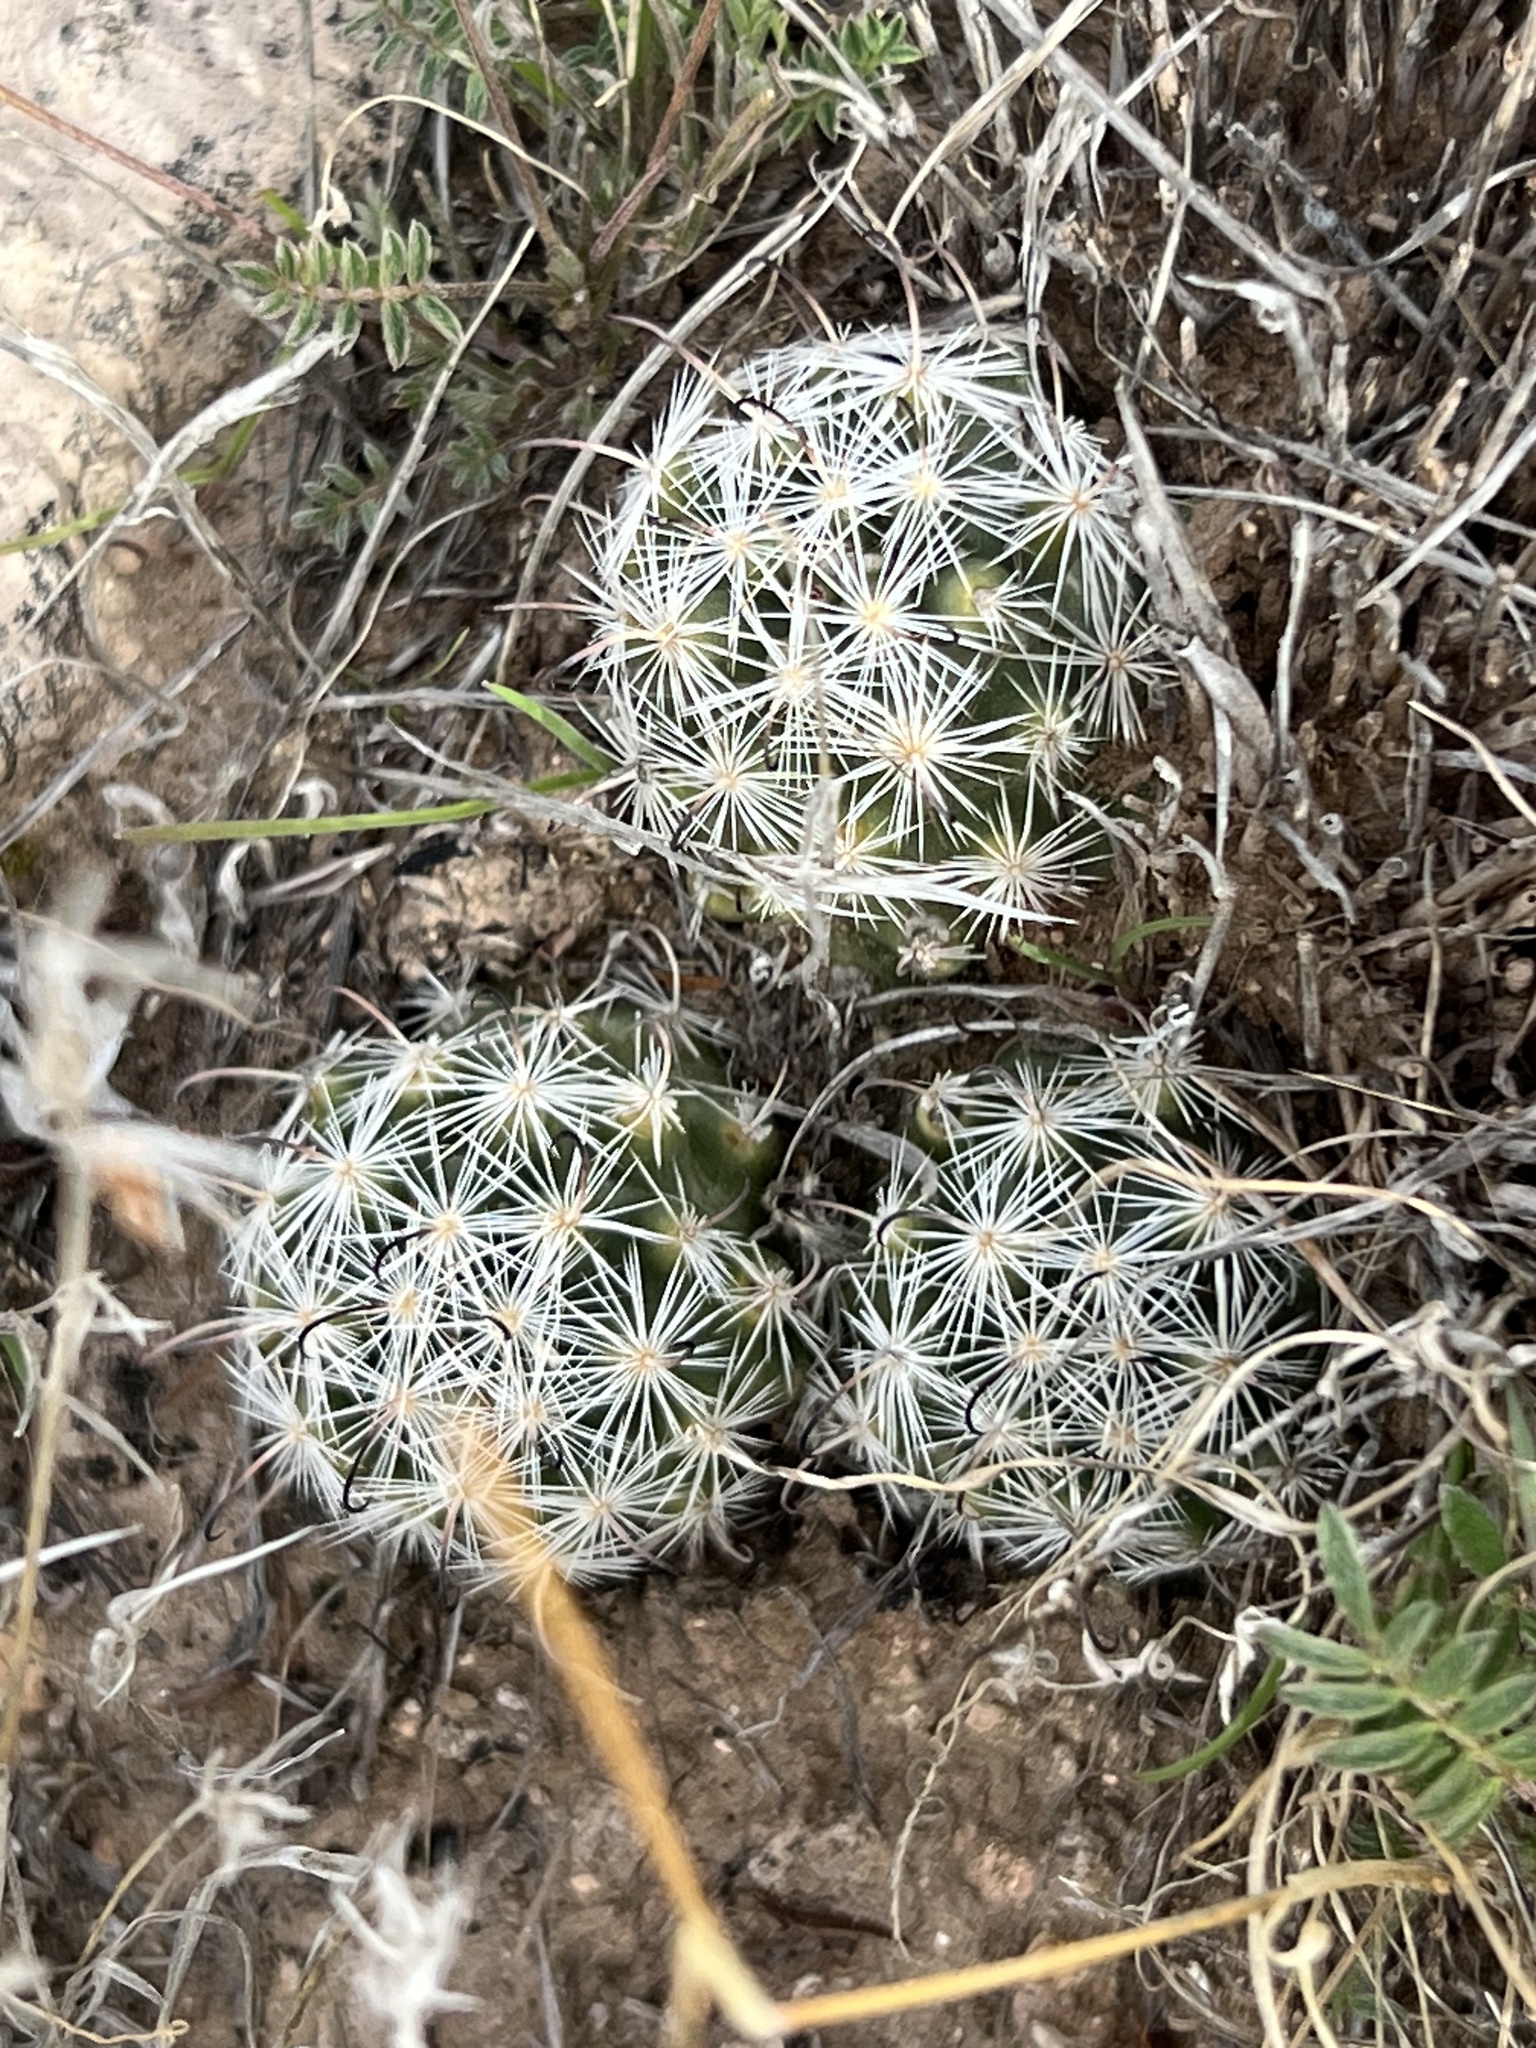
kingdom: Plantae
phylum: Tracheophyta
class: Magnoliopsida
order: Caryophyllales
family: Cactaceae
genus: Cochemiea
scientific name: Cochemiea tetrancistra
